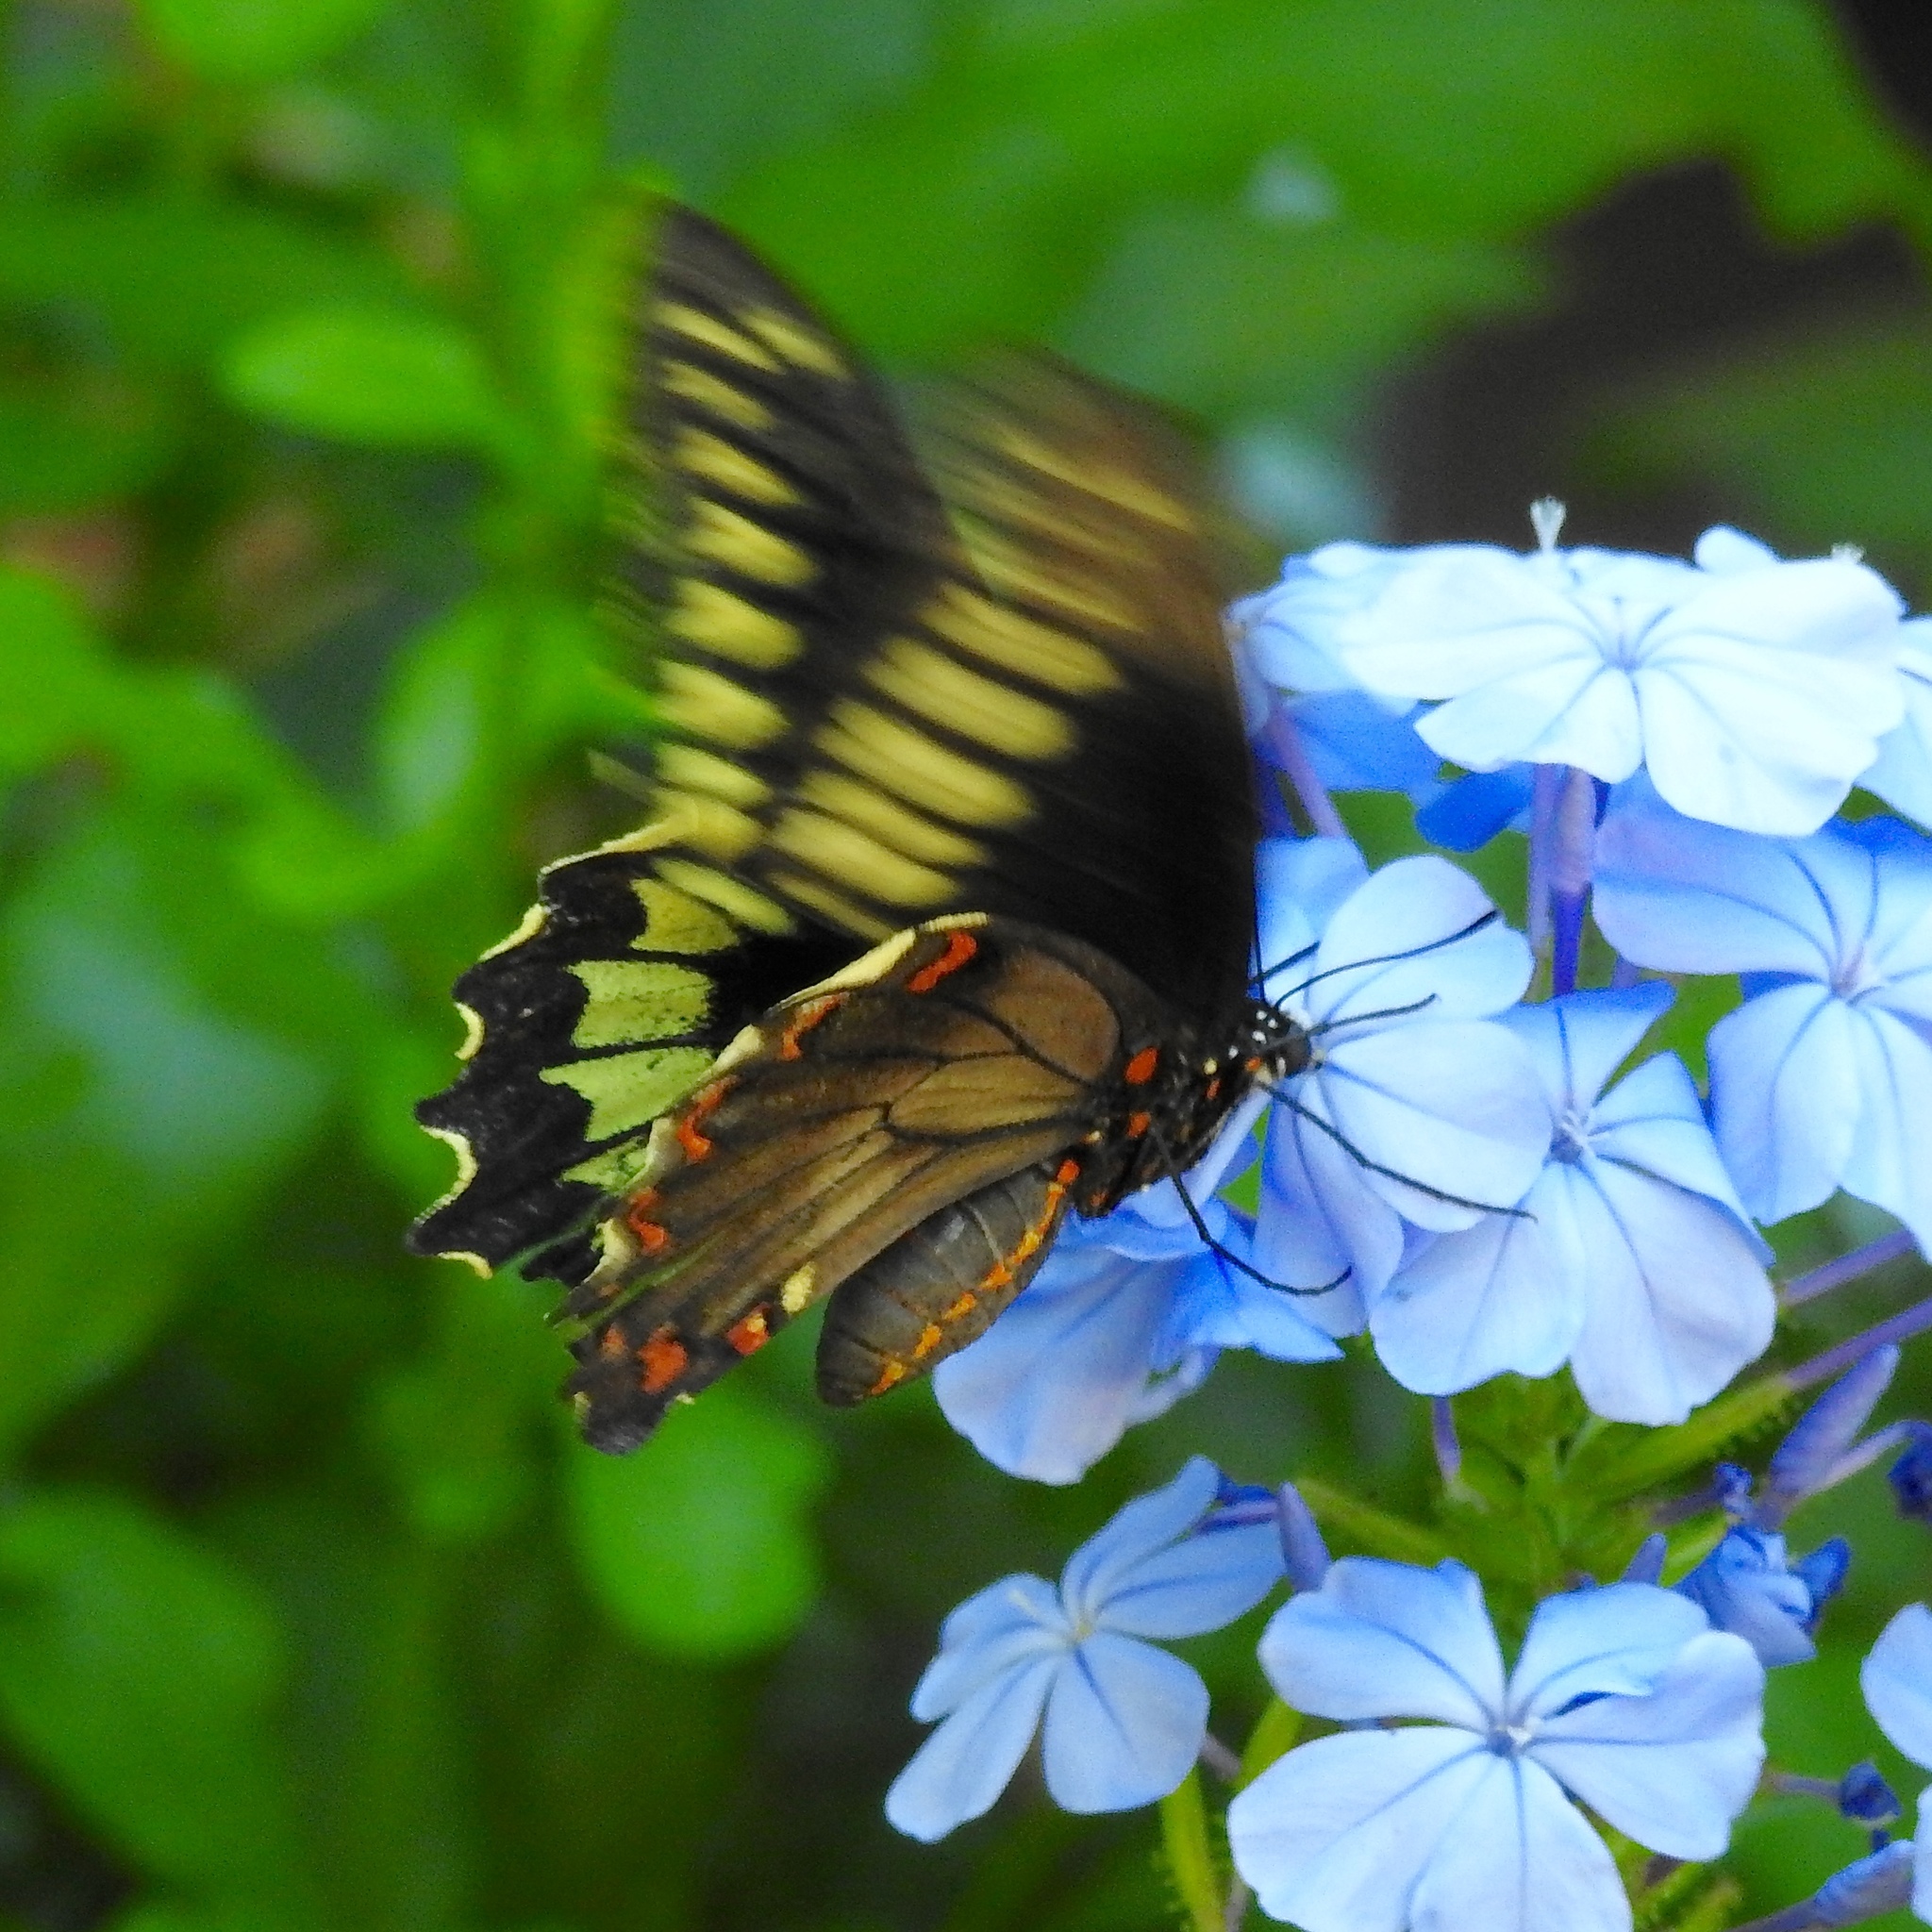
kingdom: Animalia
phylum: Arthropoda
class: Insecta
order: Lepidoptera
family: Papilionidae
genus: Battus
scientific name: Battus polydamas
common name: Polydamas swallowtail
